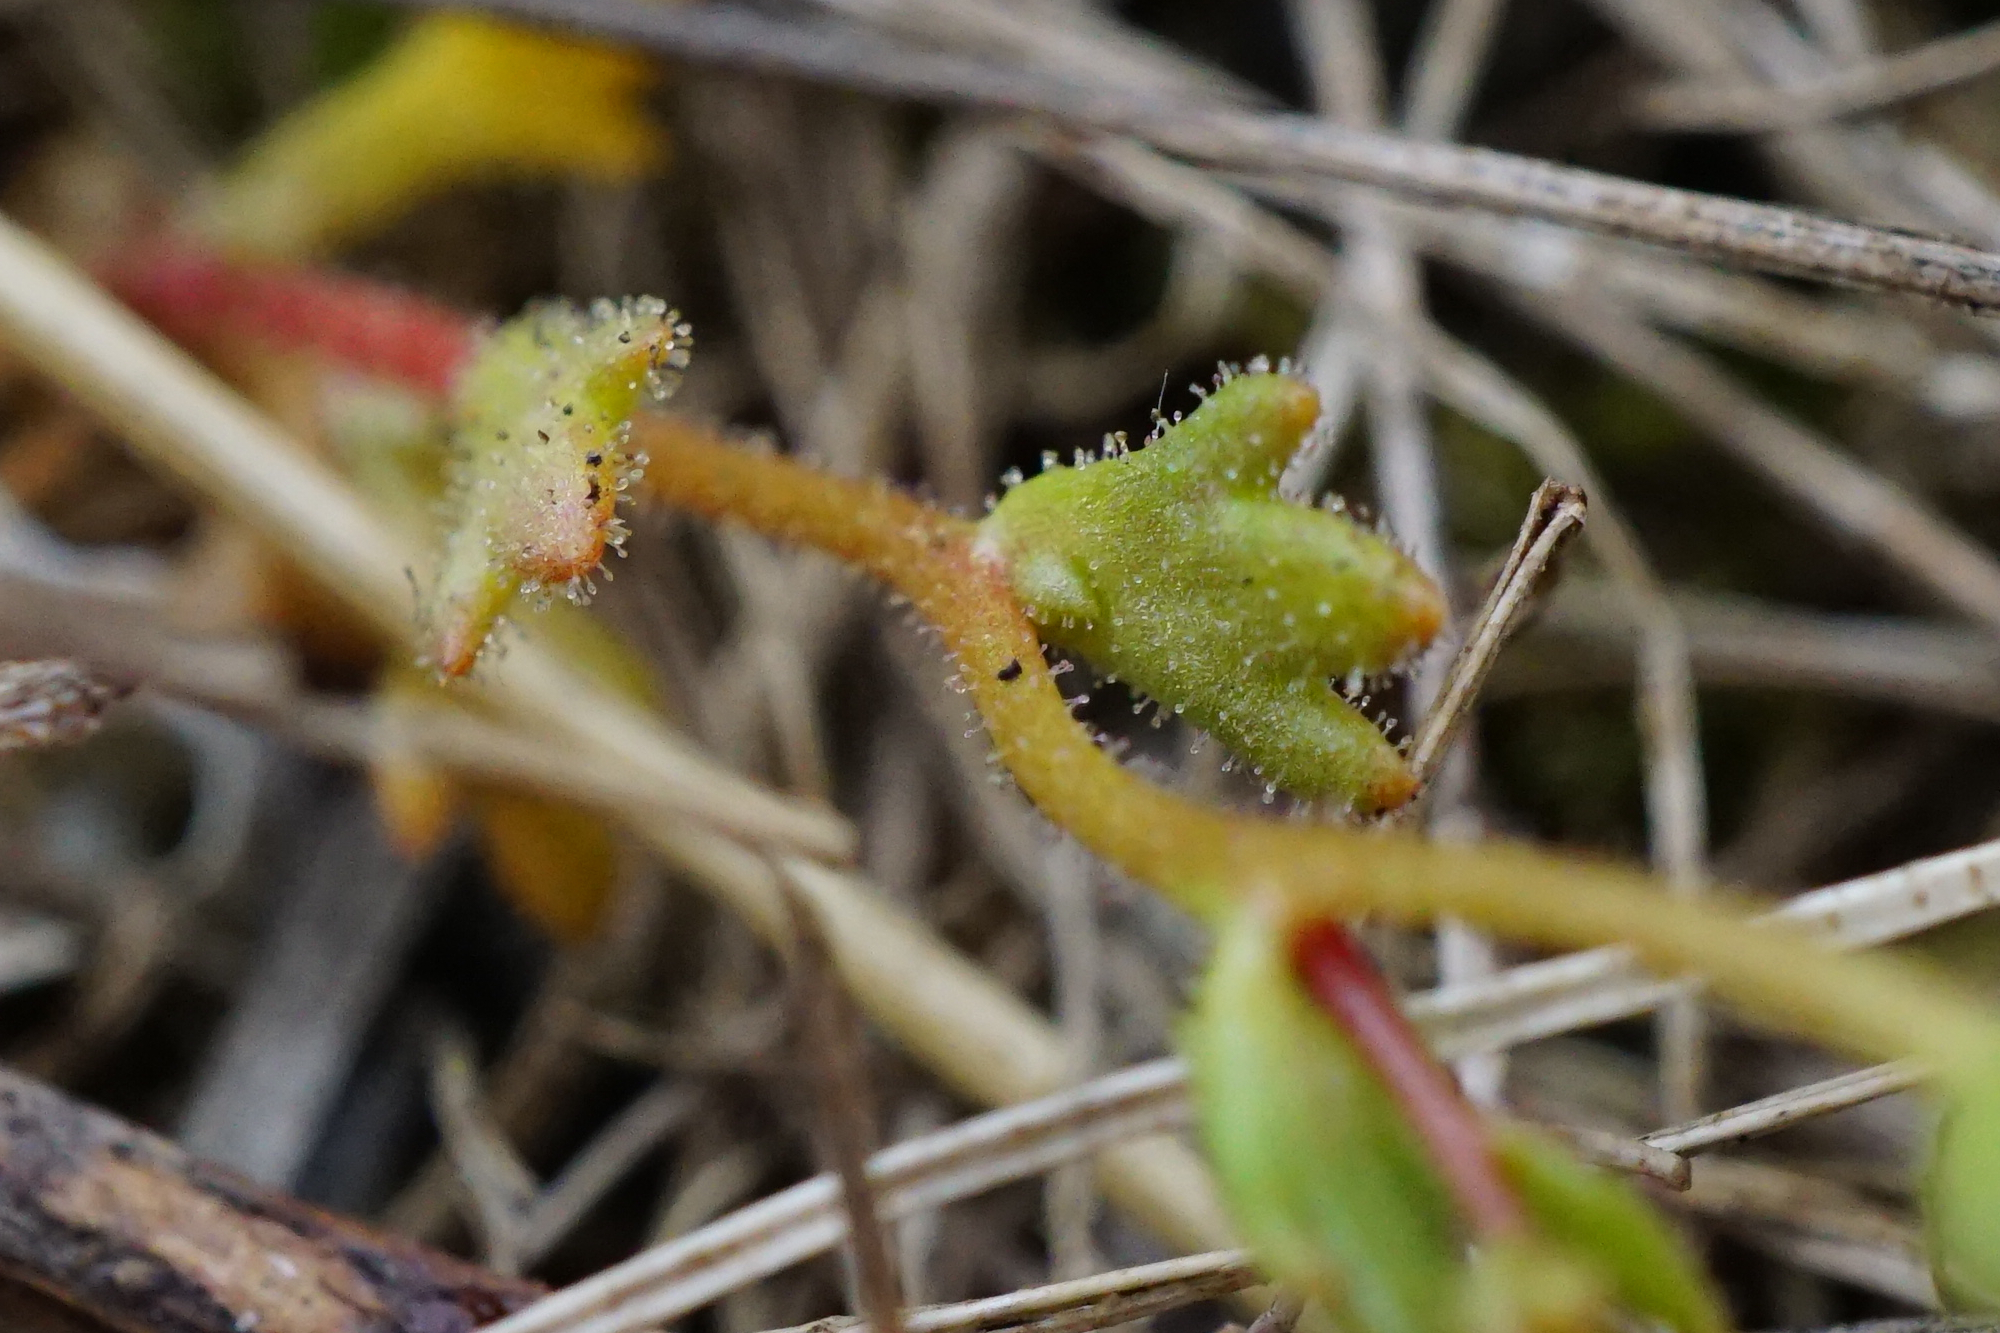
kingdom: Plantae
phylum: Tracheophyta
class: Magnoliopsida
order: Saxifragales
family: Saxifragaceae
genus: Saxifraga
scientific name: Saxifraga tridactylites
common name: Rue-leaved saxifrage
